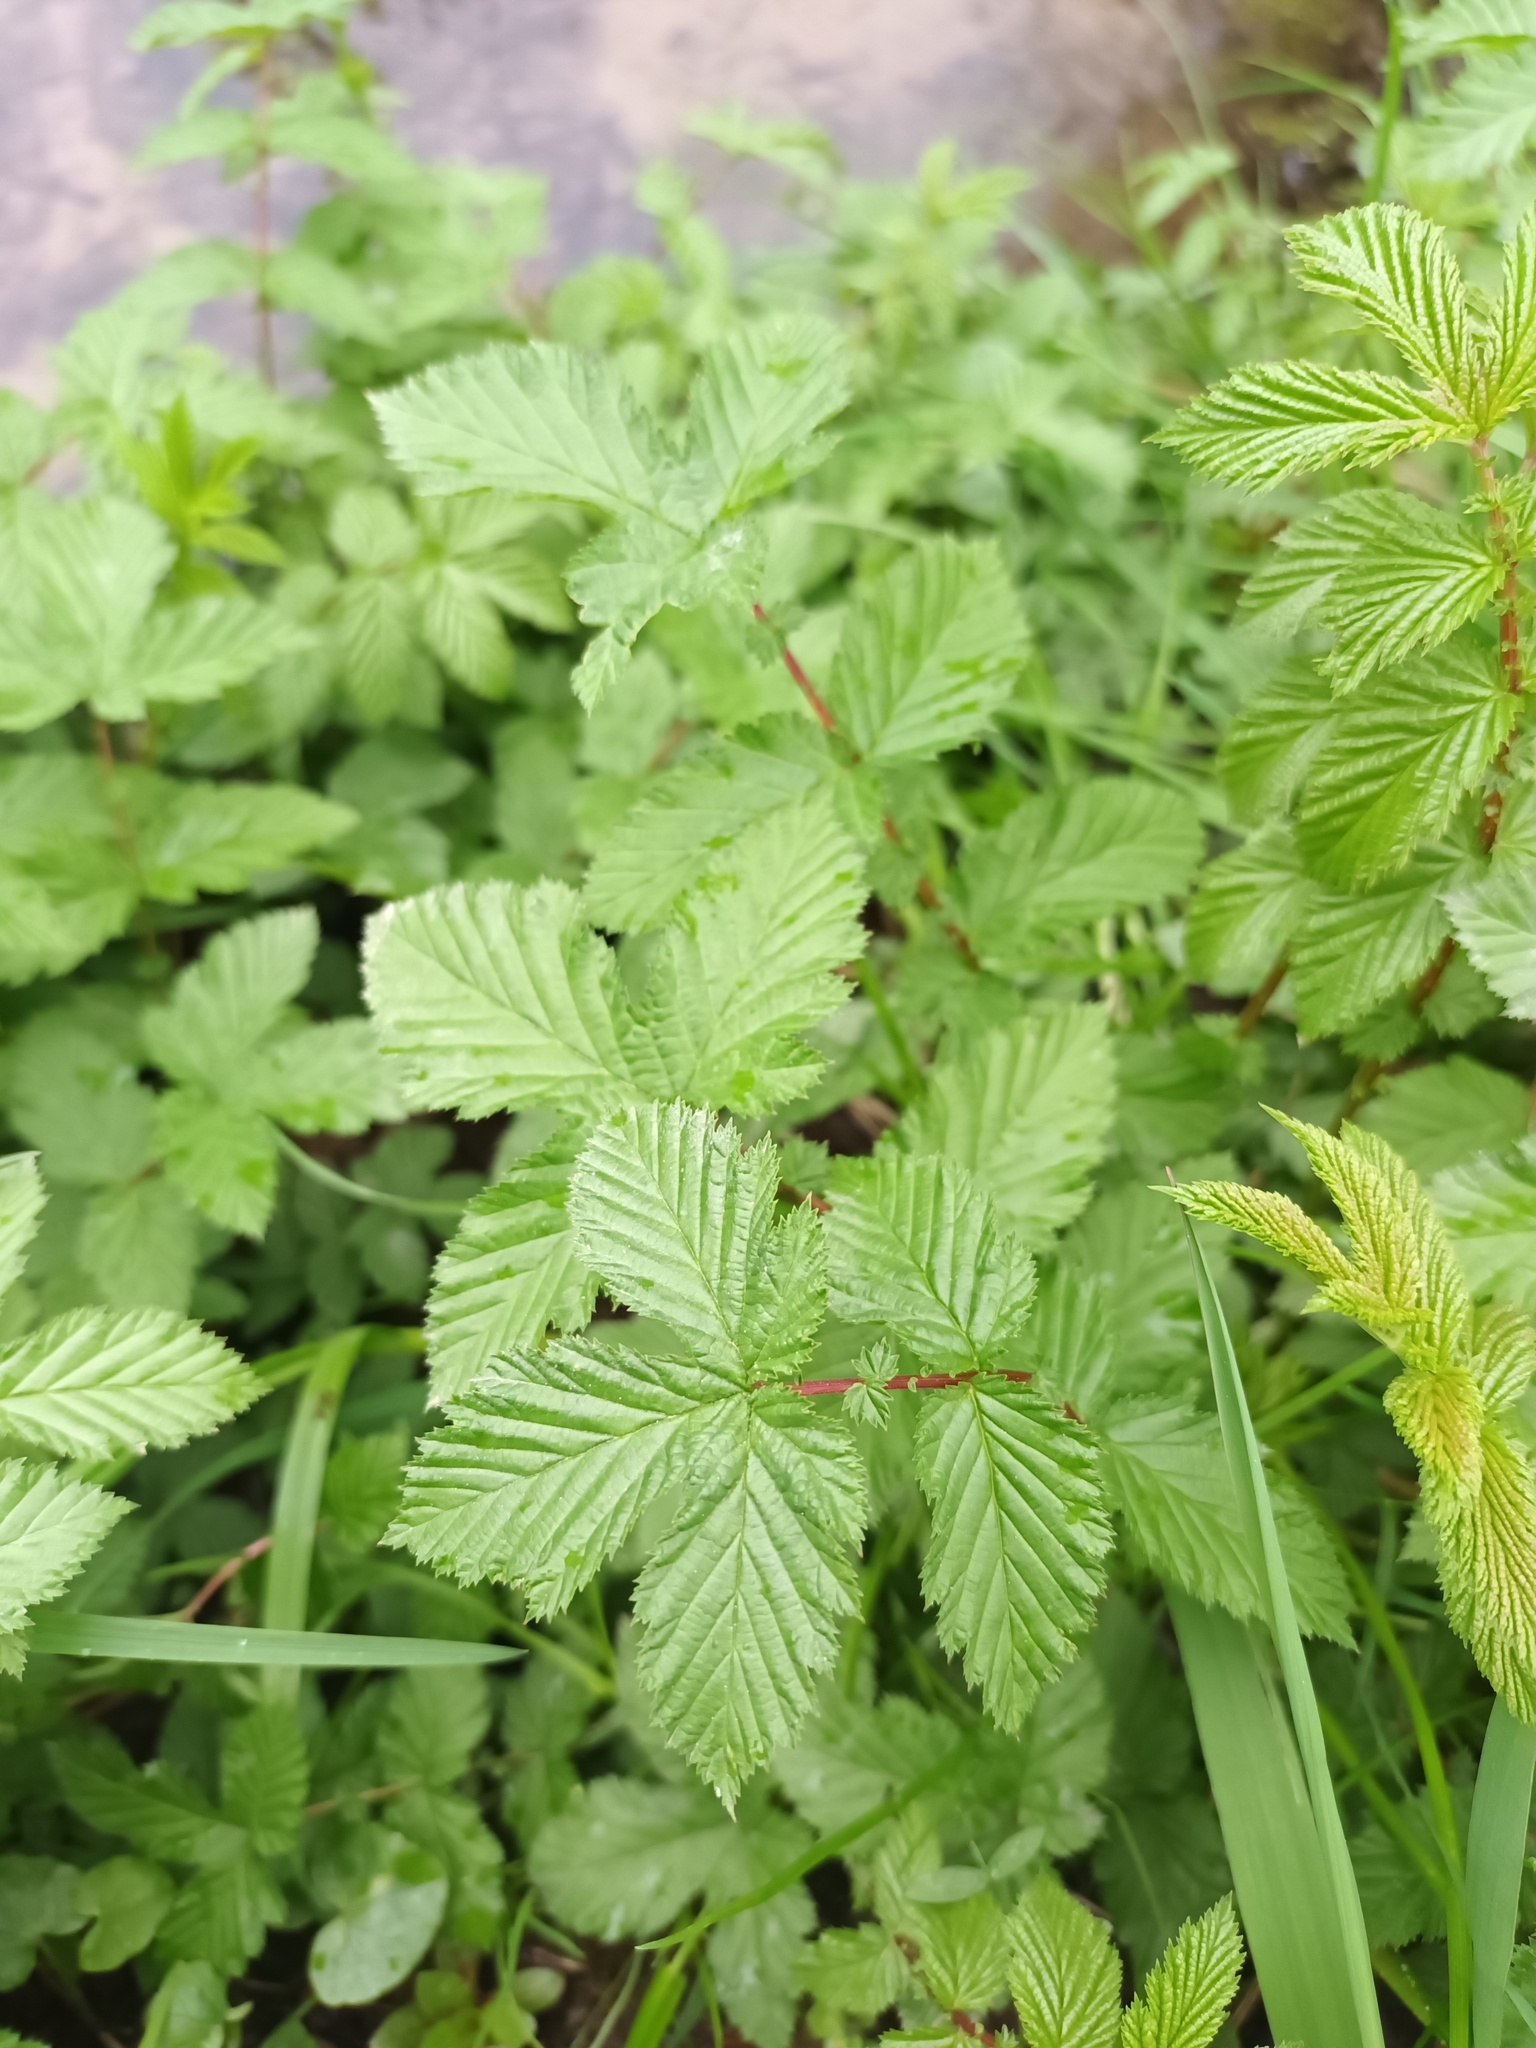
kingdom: Plantae
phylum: Tracheophyta
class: Magnoliopsida
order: Rosales
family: Rosaceae
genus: Filipendula
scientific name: Filipendula ulmaria
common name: Meadowsweet
